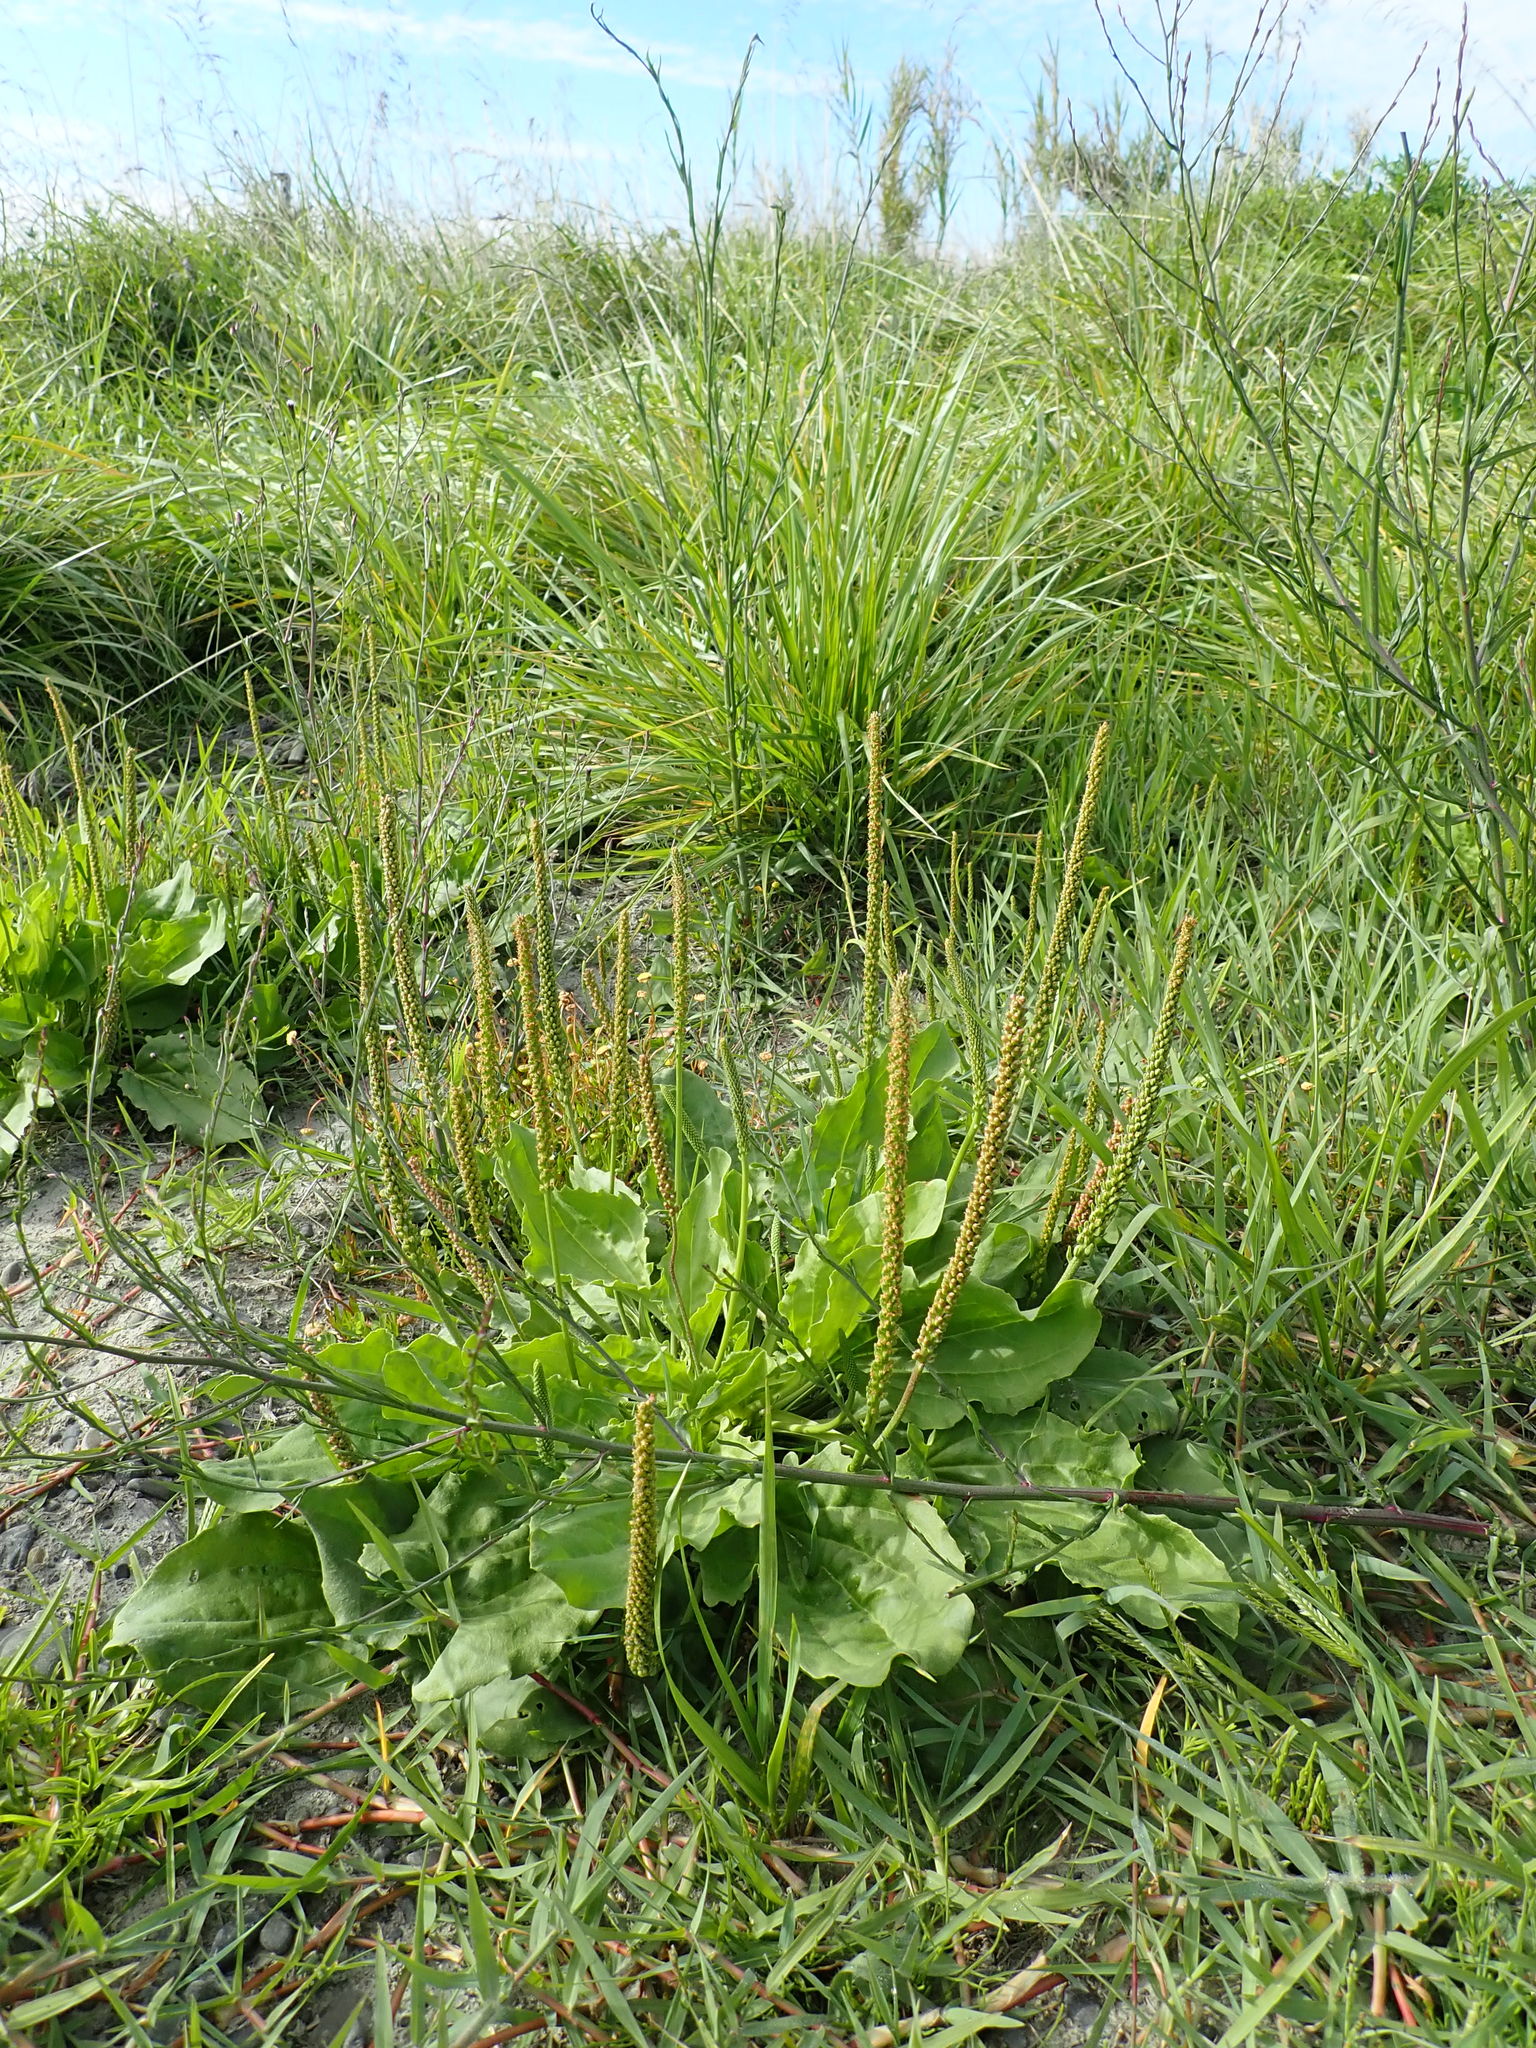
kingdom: Plantae
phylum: Tracheophyta
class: Magnoliopsida
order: Lamiales
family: Plantaginaceae
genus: Plantago
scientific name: Plantago major
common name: Common plantain
